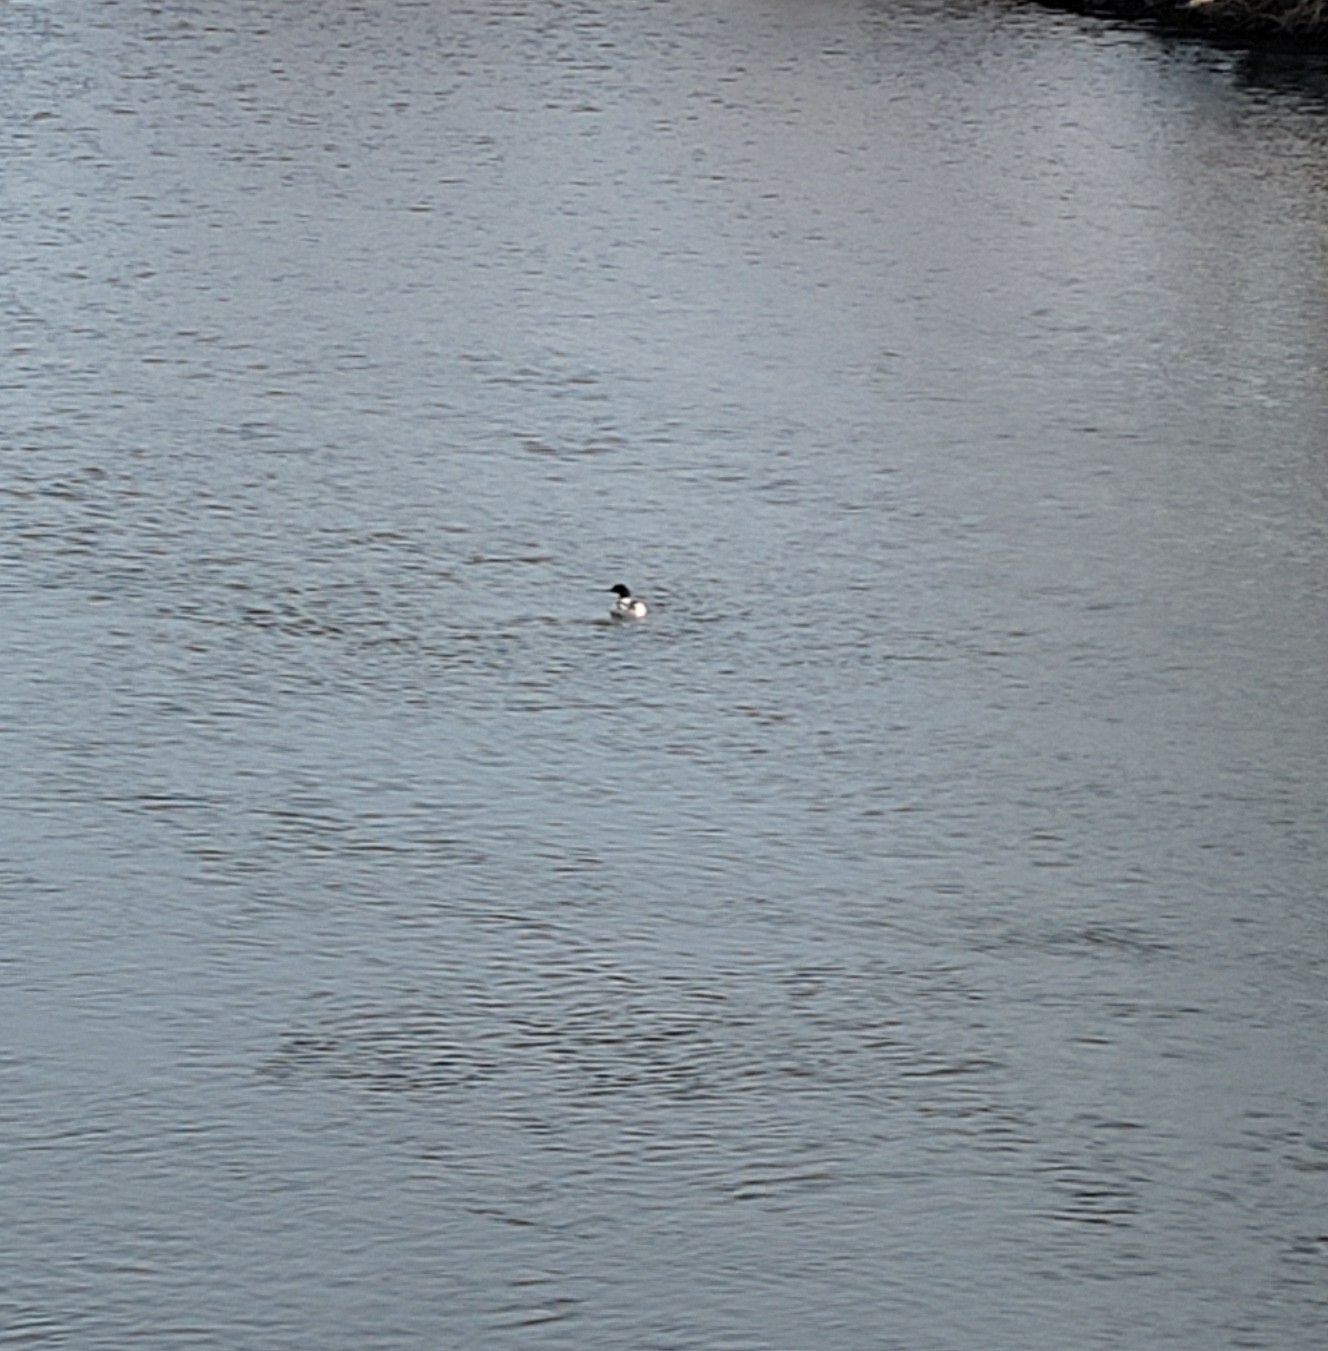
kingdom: Animalia
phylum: Chordata
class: Aves
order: Anseriformes
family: Anatidae
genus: Mergus
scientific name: Mergus merganser
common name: Common merganser
